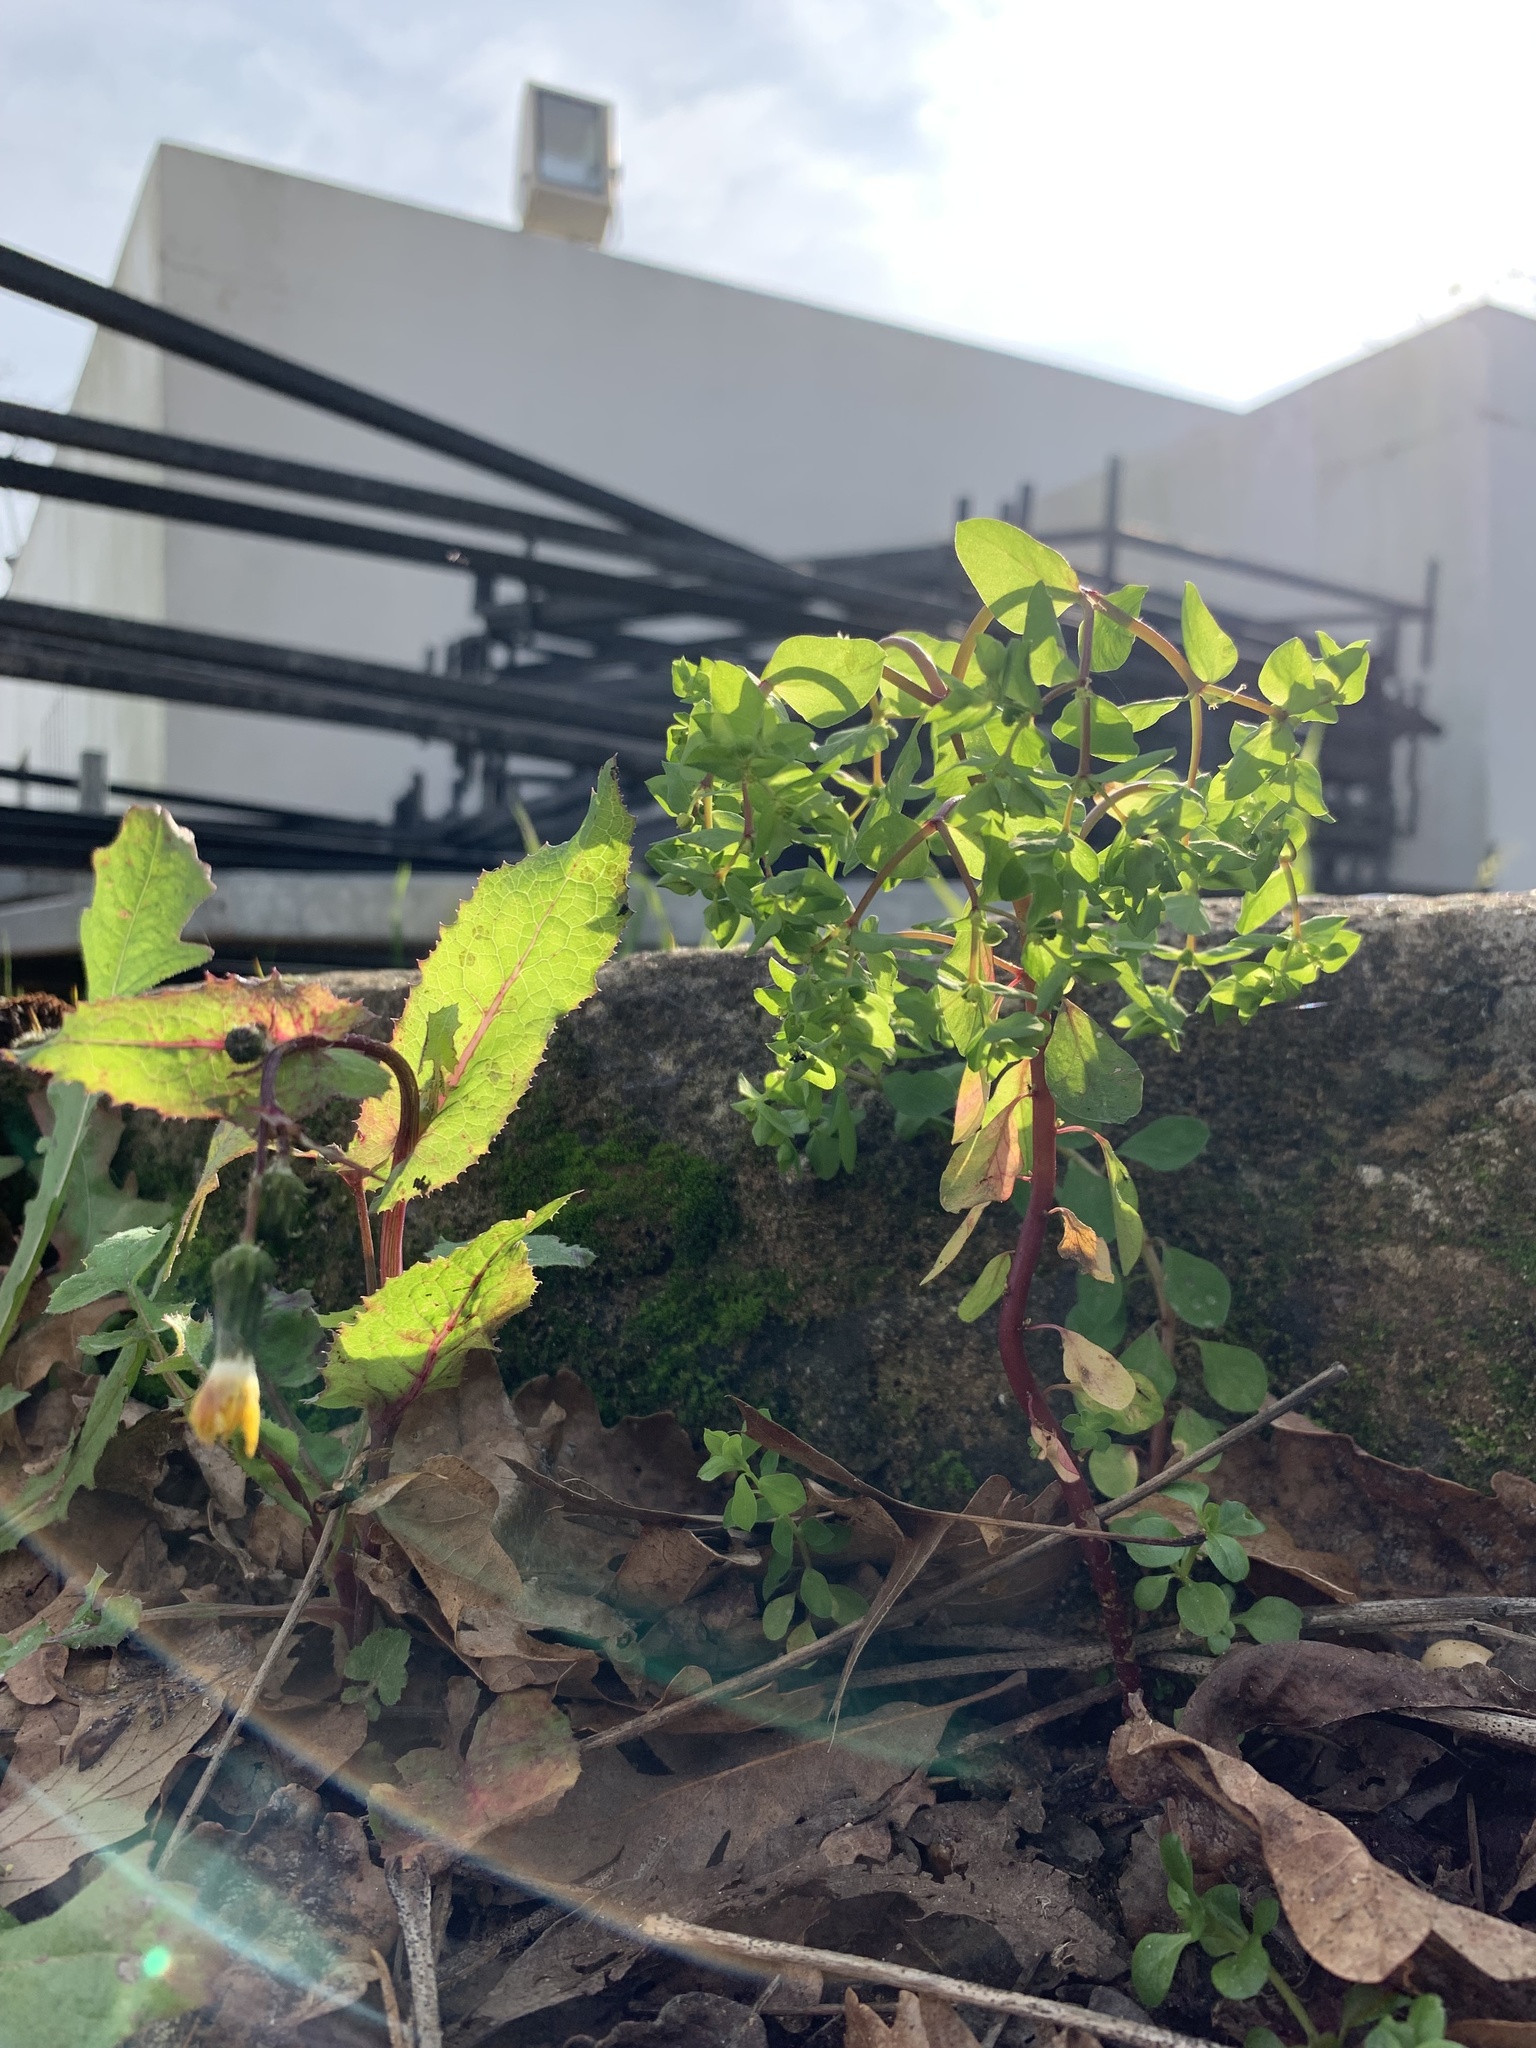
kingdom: Plantae
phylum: Tracheophyta
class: Magnoliopsida
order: Malpighiales
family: Euphorbiaceae
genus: Euphorbia
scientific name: Euphorbia peplus
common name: Petty spurge
